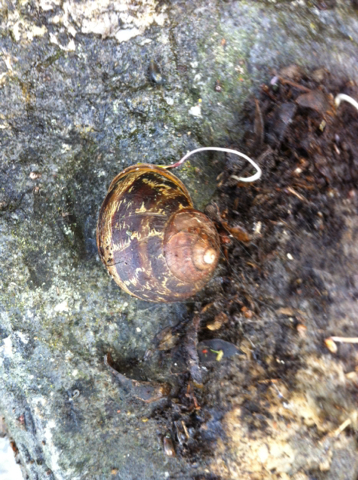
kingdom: Animalia
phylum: Mollusca
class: Gastropoda
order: Stylommatophora
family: Helicidae
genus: Cornu
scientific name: Cornu aspersum
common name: Brown garden snail
